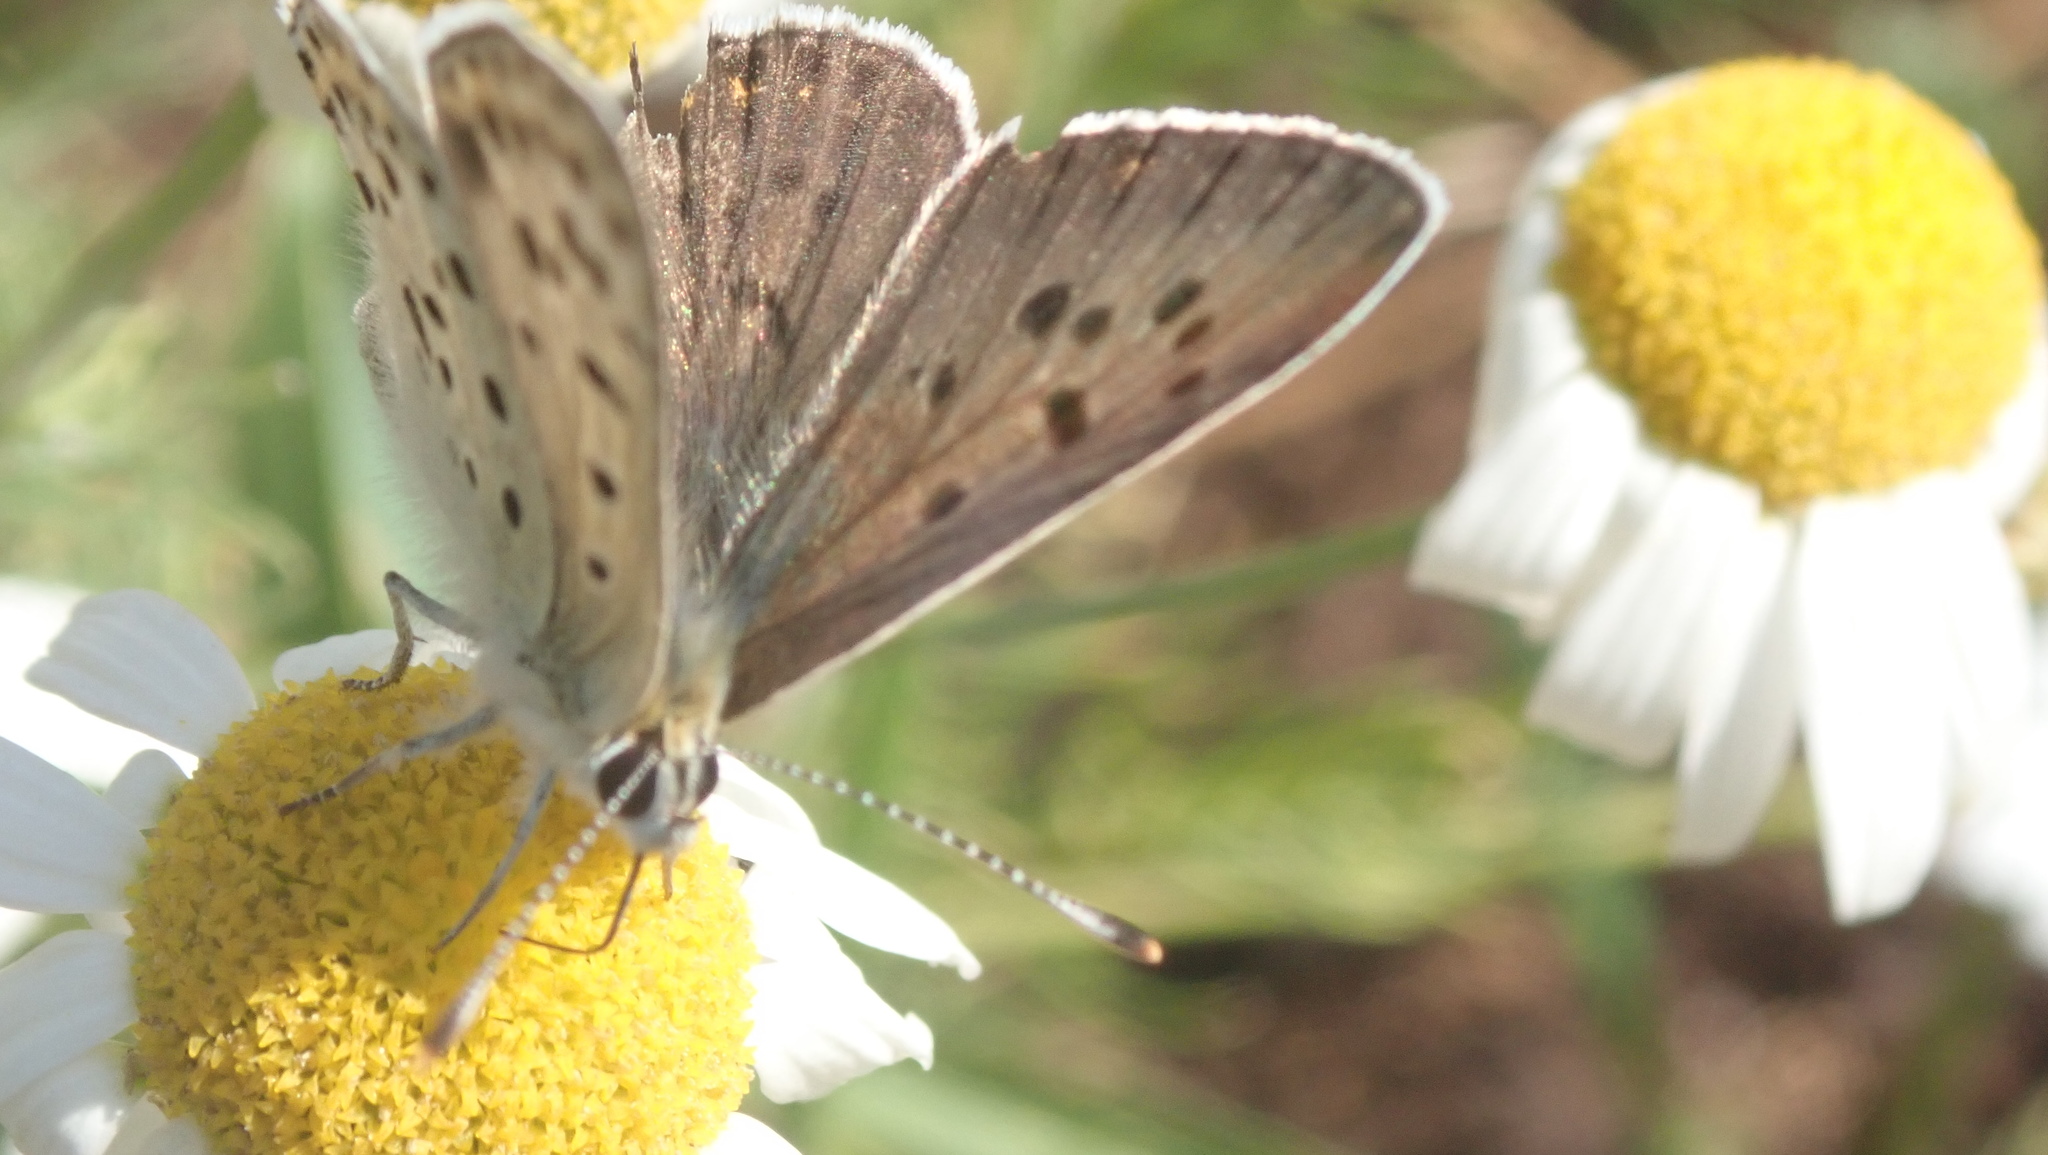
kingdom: Animalia
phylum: Arthropoda
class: Insecta
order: Lepidoptera
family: Lycaenidae
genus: Loweia
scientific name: Loweia tityrus
